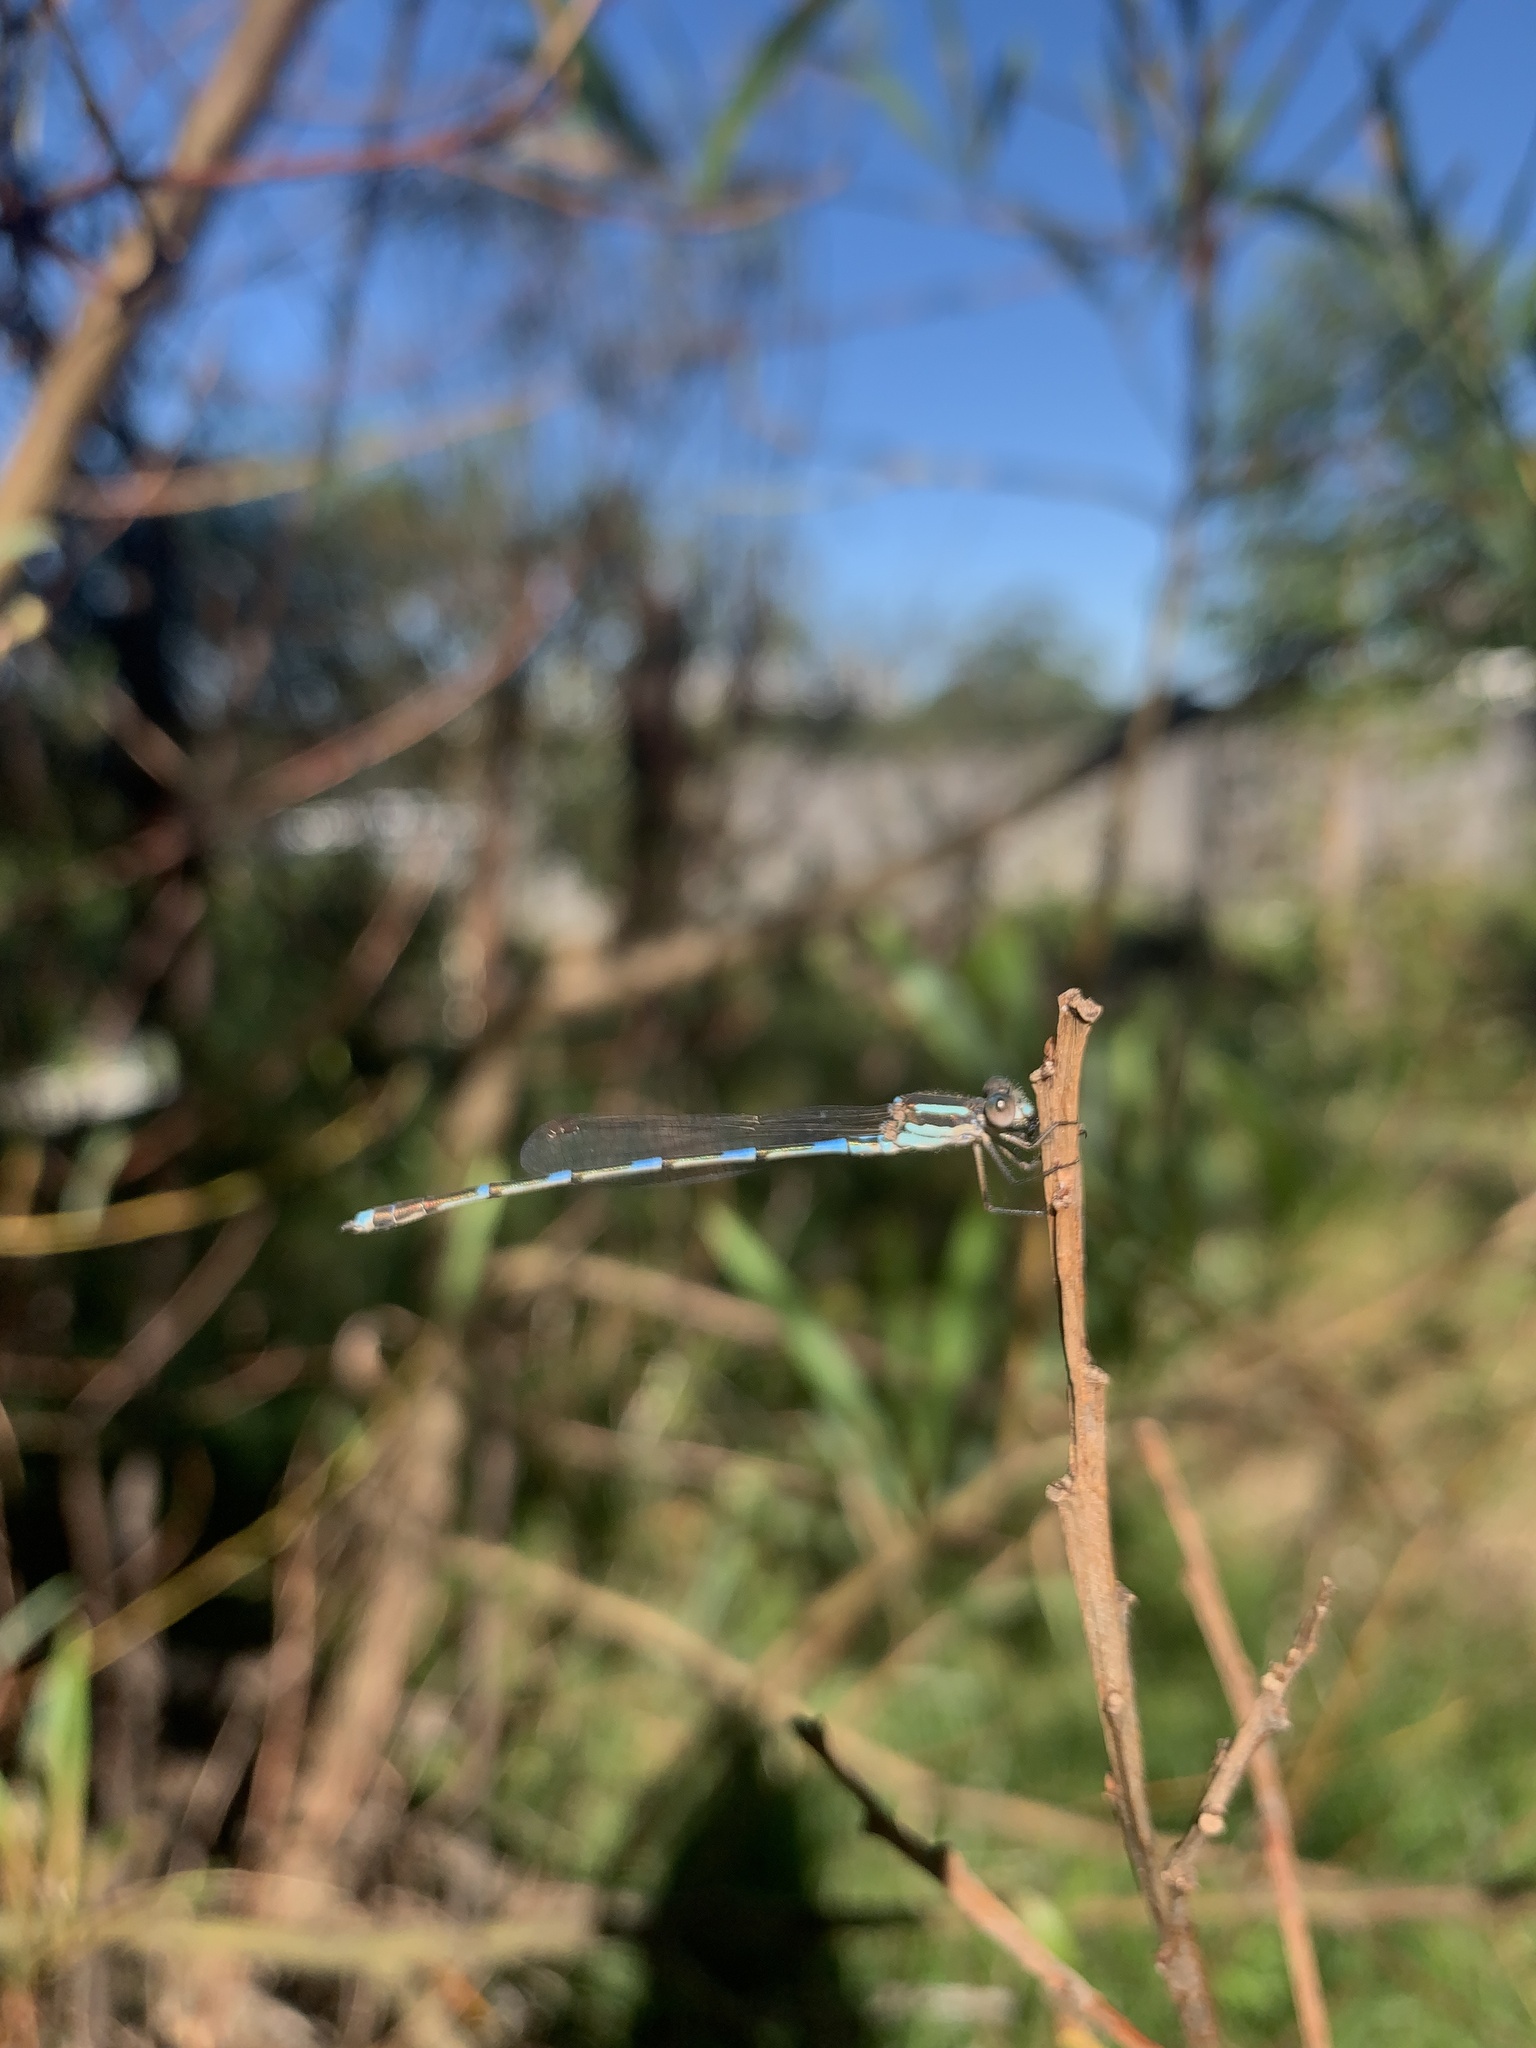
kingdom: Animalia
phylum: Arthropoda
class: Insecta
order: Odonata
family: Lestidae
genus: Austrolestes
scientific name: Austrolestes leda
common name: Wandering ringtail
